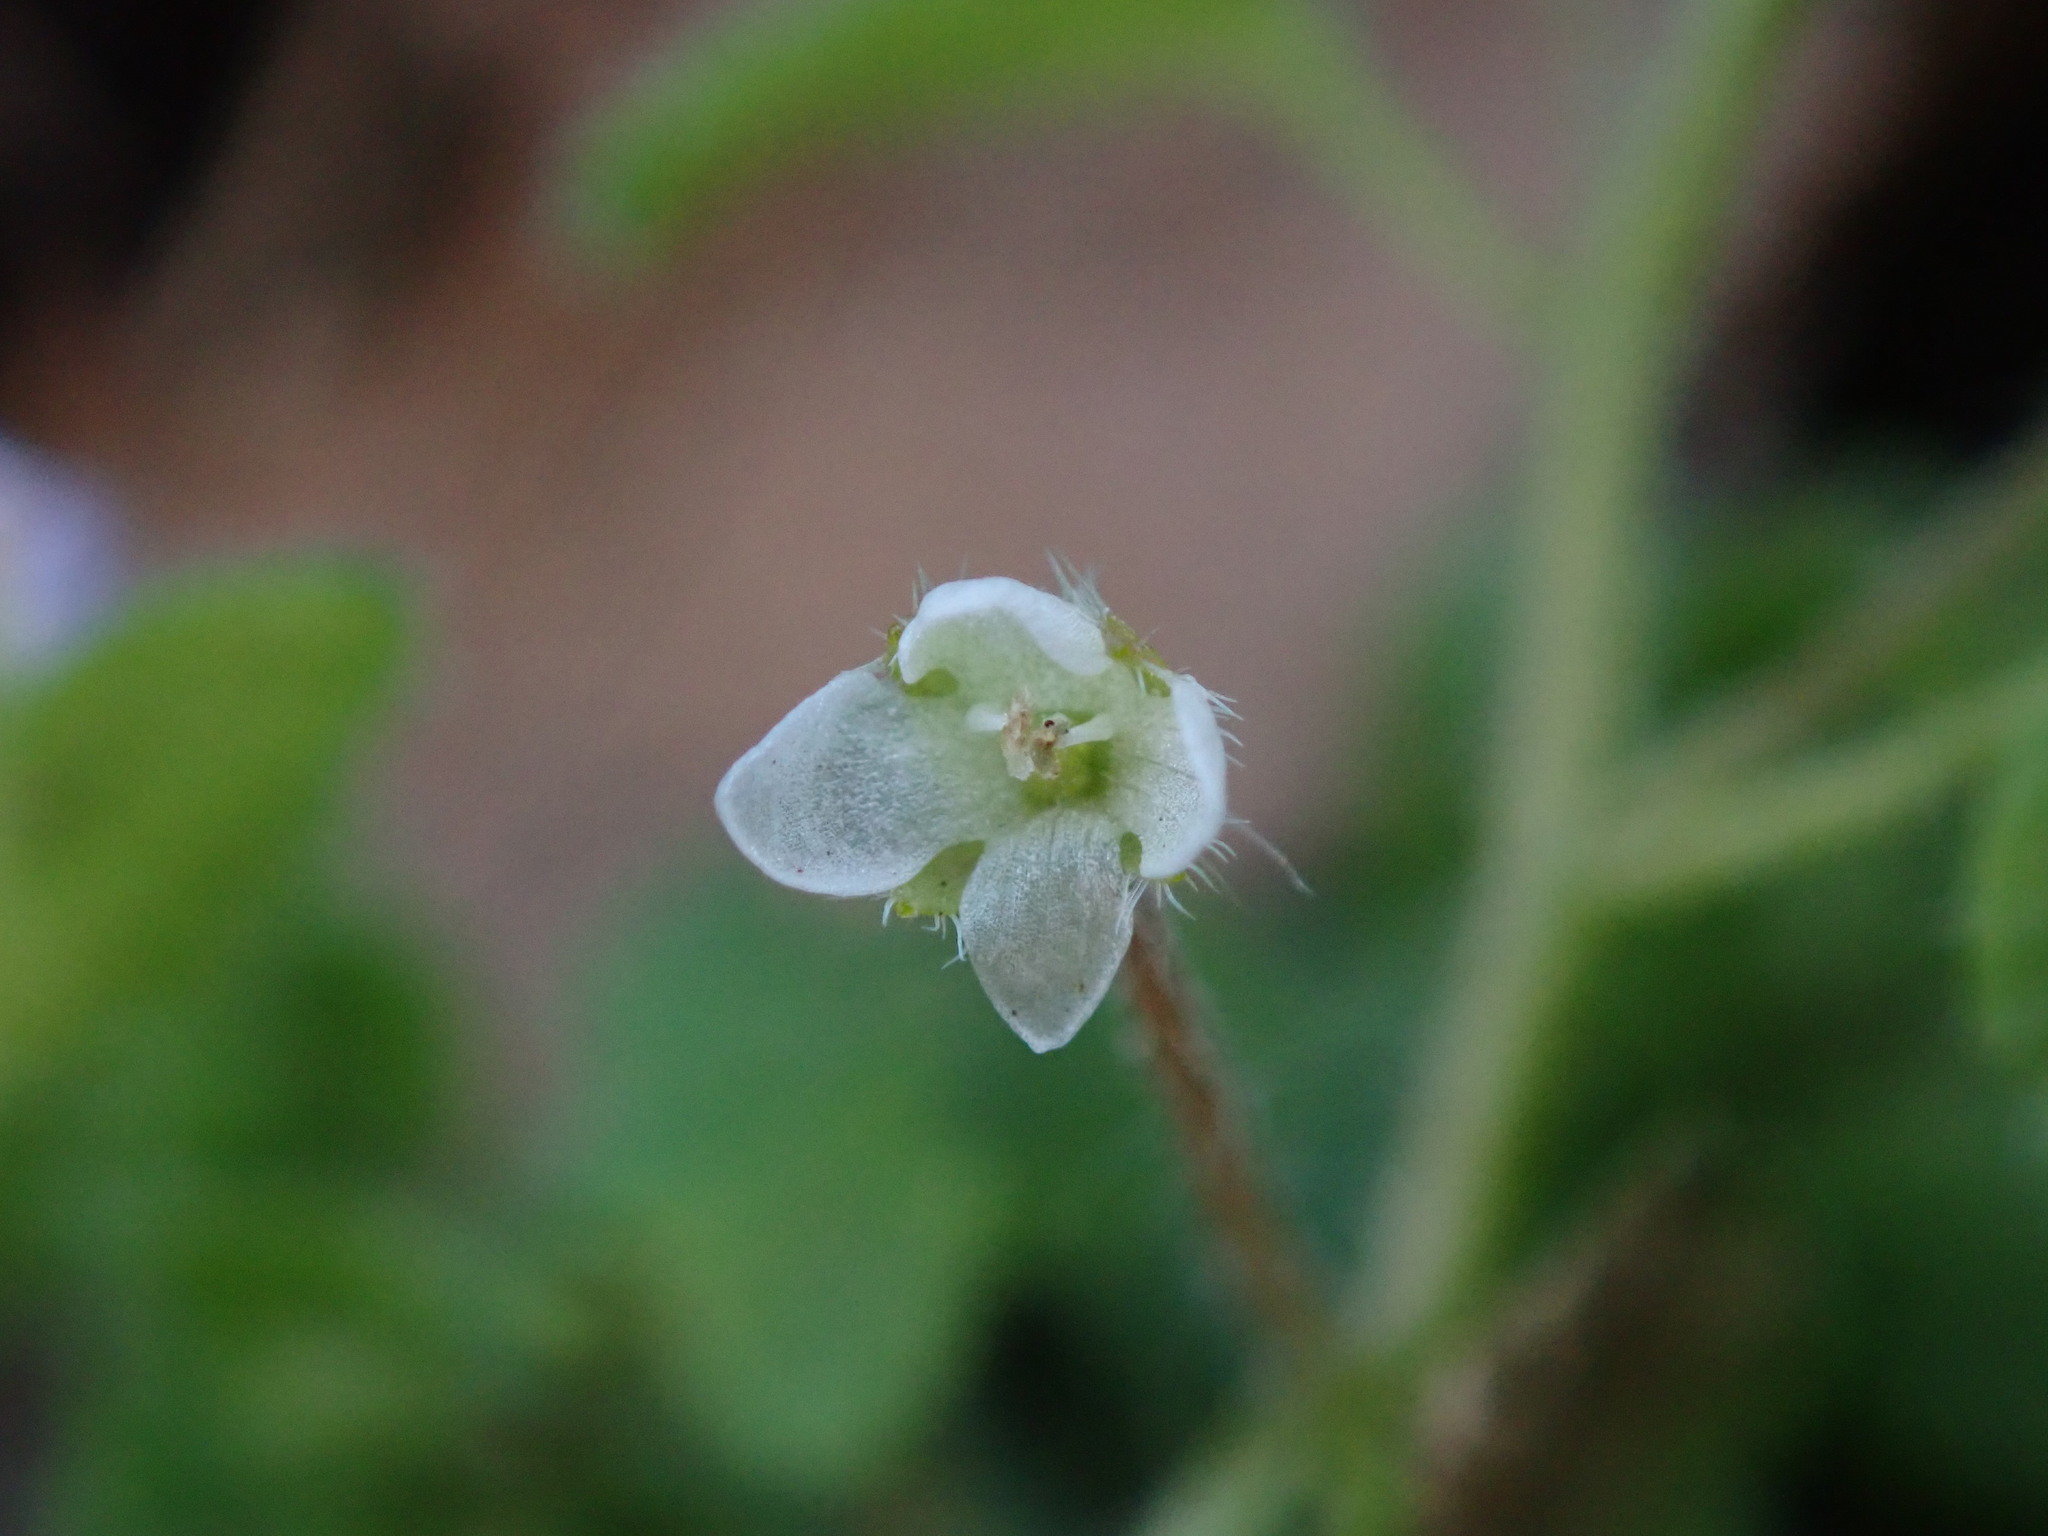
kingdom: Plantae
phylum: Tracheophyta
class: Magnoliopsida
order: Lamiales
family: Plantaginaceae
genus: Veronica
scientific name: Veronica sublobata
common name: False ivy-leaved speedwell
